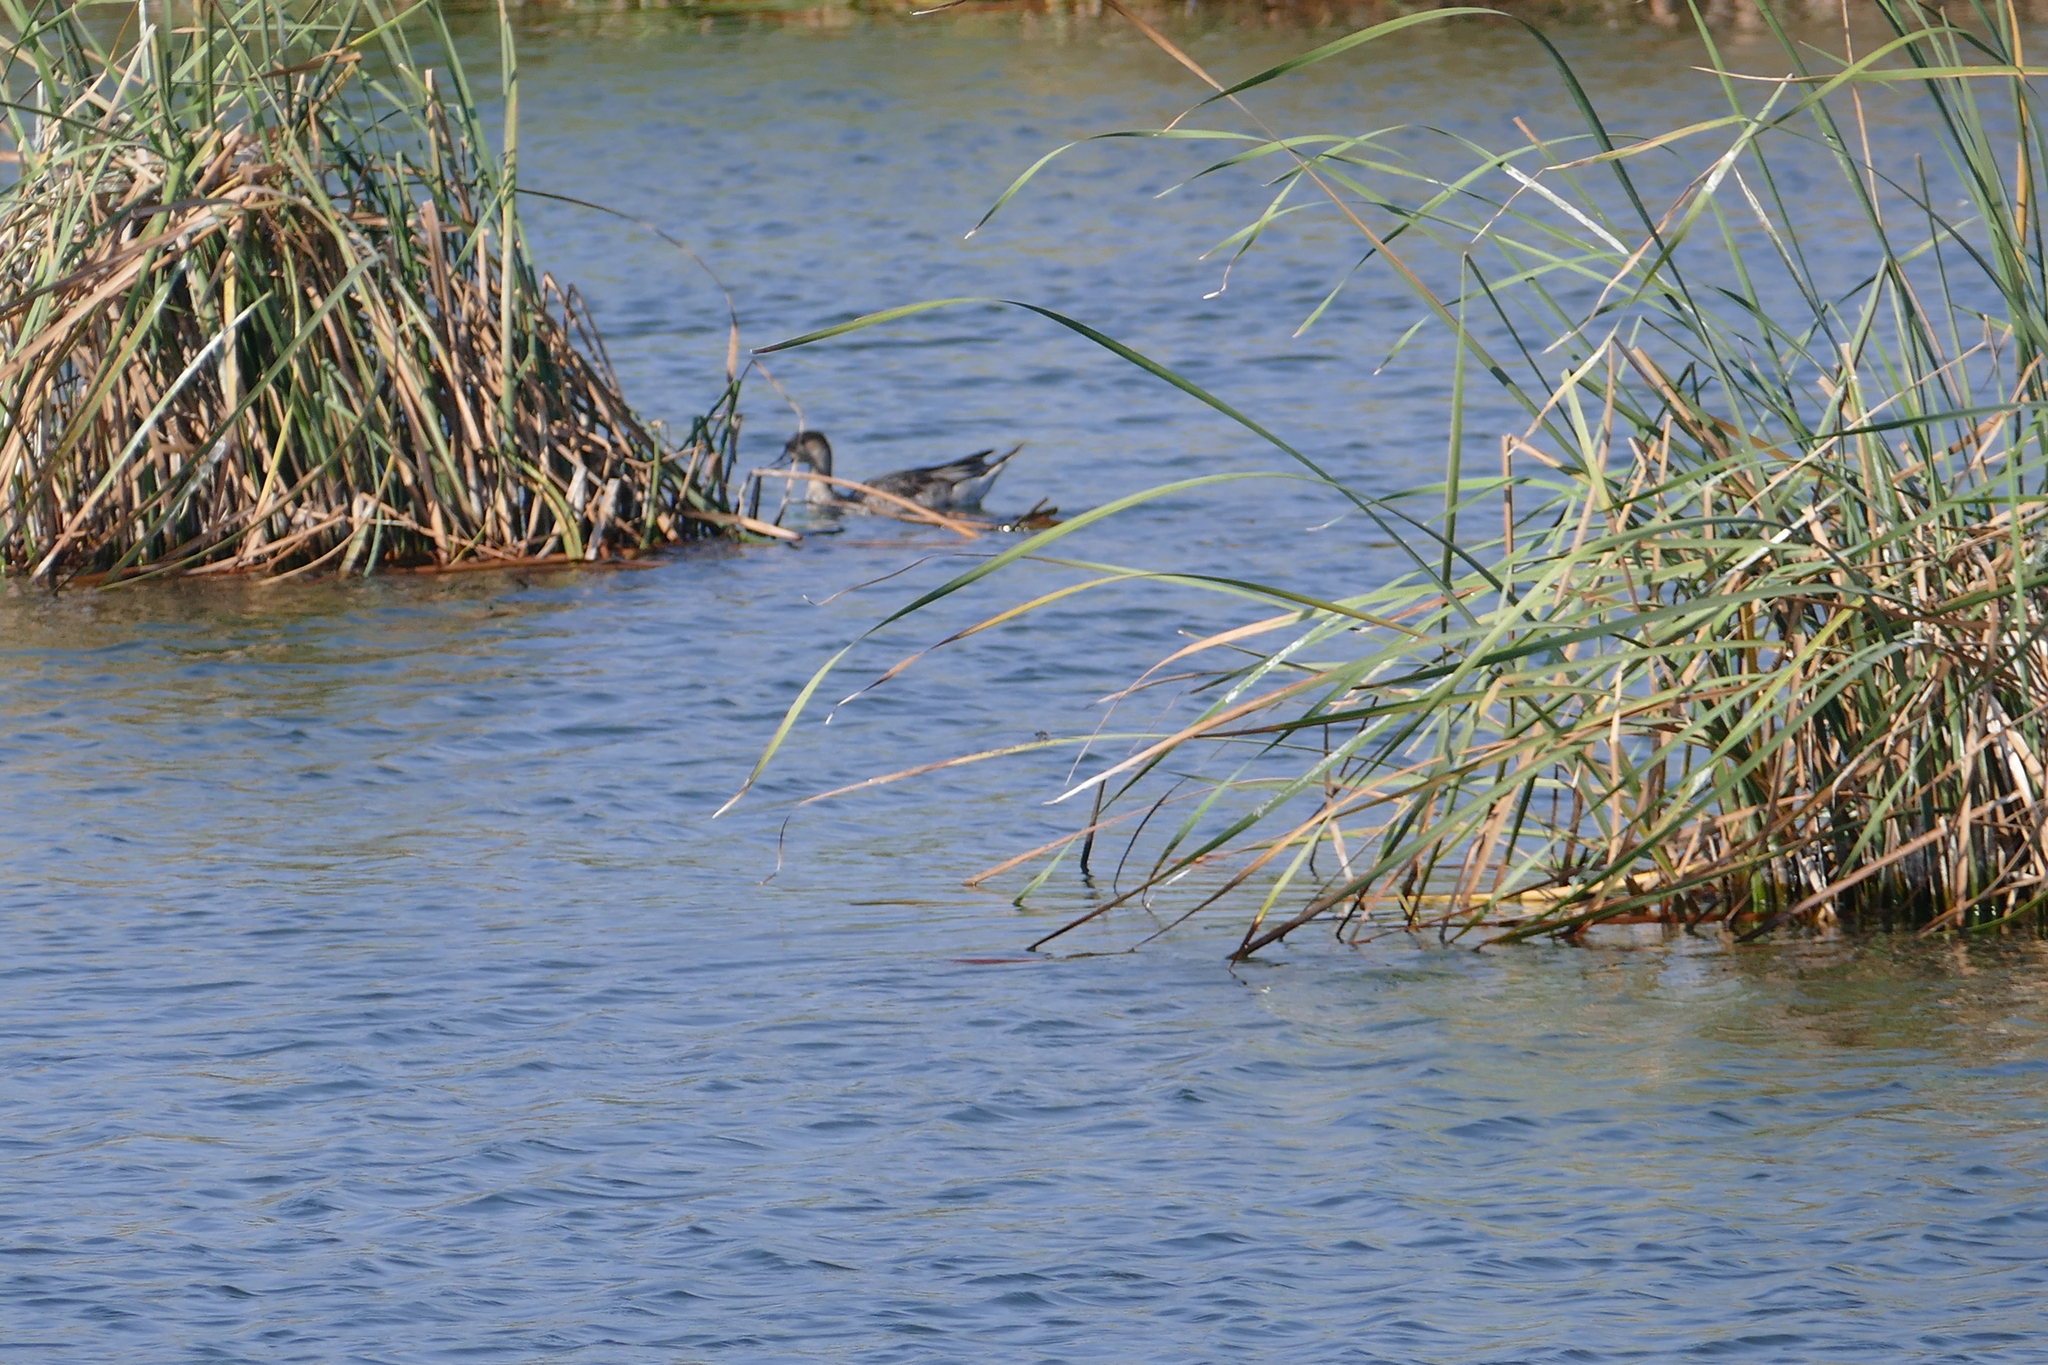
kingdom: Animalia
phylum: Chordata
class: Aves
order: Anseriformes
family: Anatidae
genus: Anas
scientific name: Anas acuta
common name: Northern pintail
